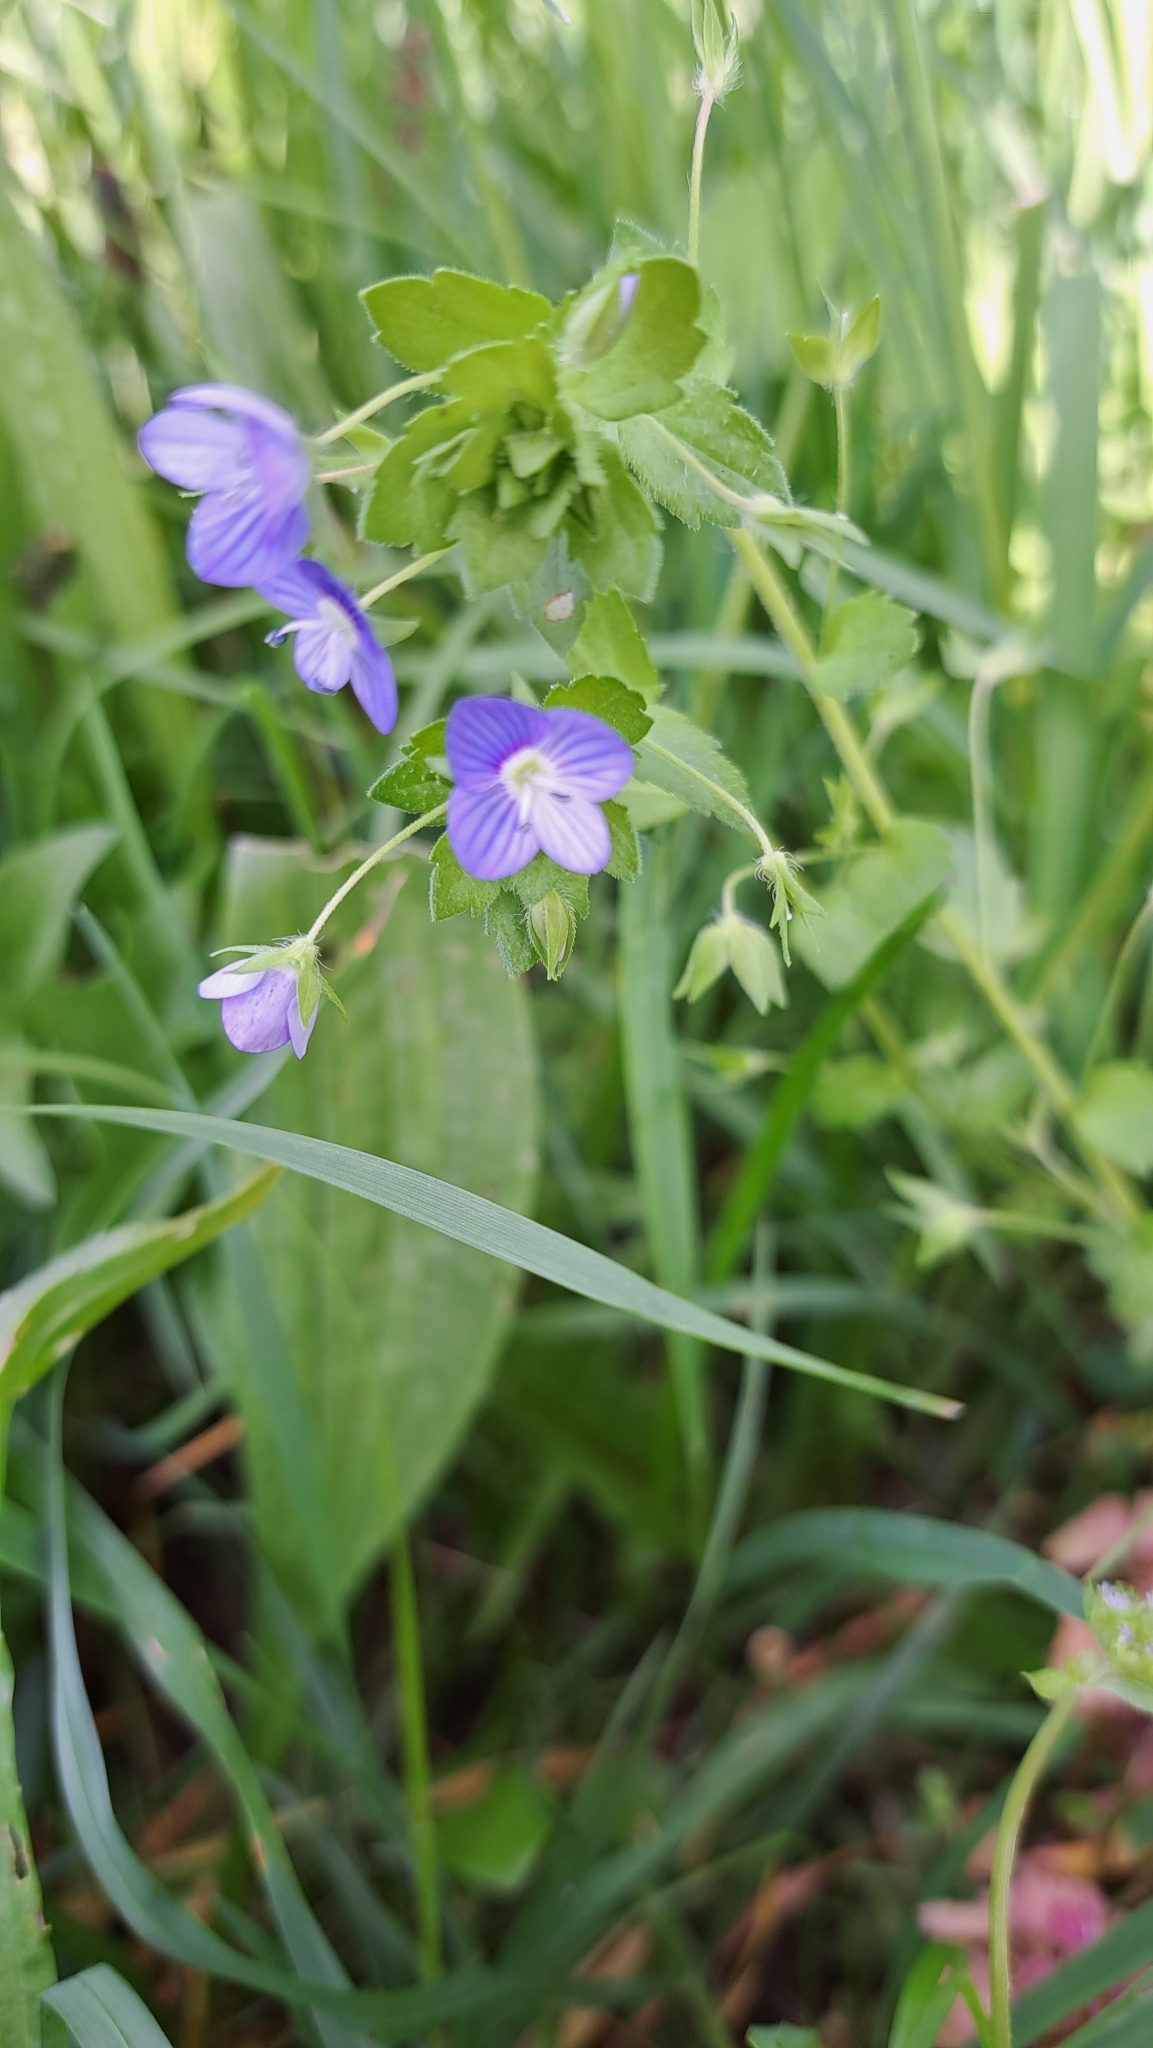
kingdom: Plantae
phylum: Tracheophyta
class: Magnoliopsida
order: Lamiales
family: Plantaginaceae
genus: Veronica
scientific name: Veronica persica
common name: Common field-speedwell
